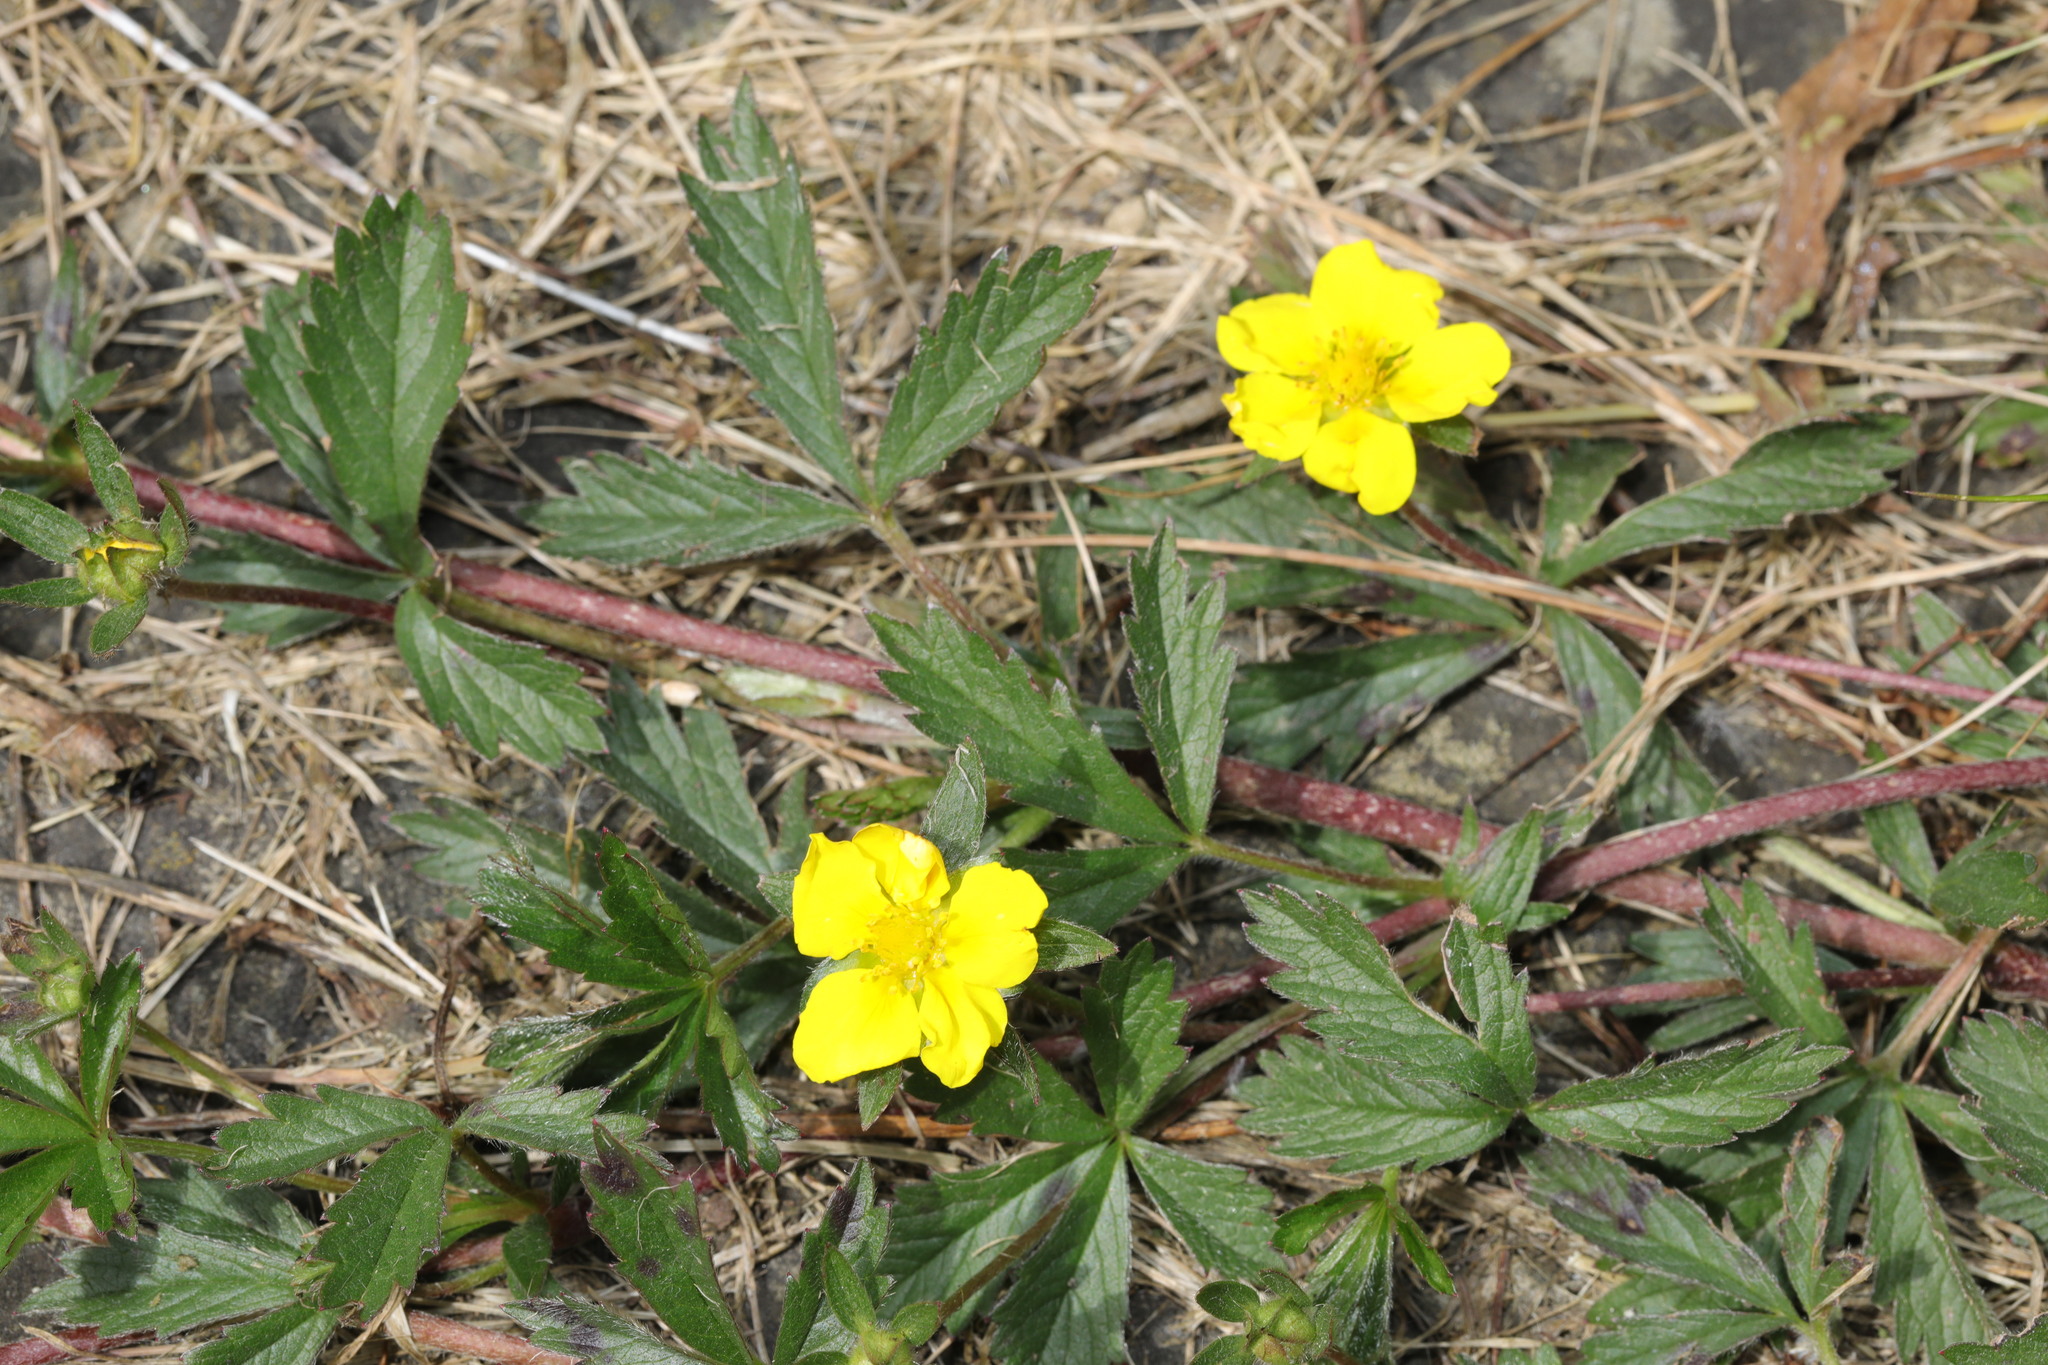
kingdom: Plantae
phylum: Tracheophyta
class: Magnoliopsida
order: Rosales
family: Rosaceae
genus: Potentilla
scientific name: Potentilla reptans
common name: Creeping cinquefoil
